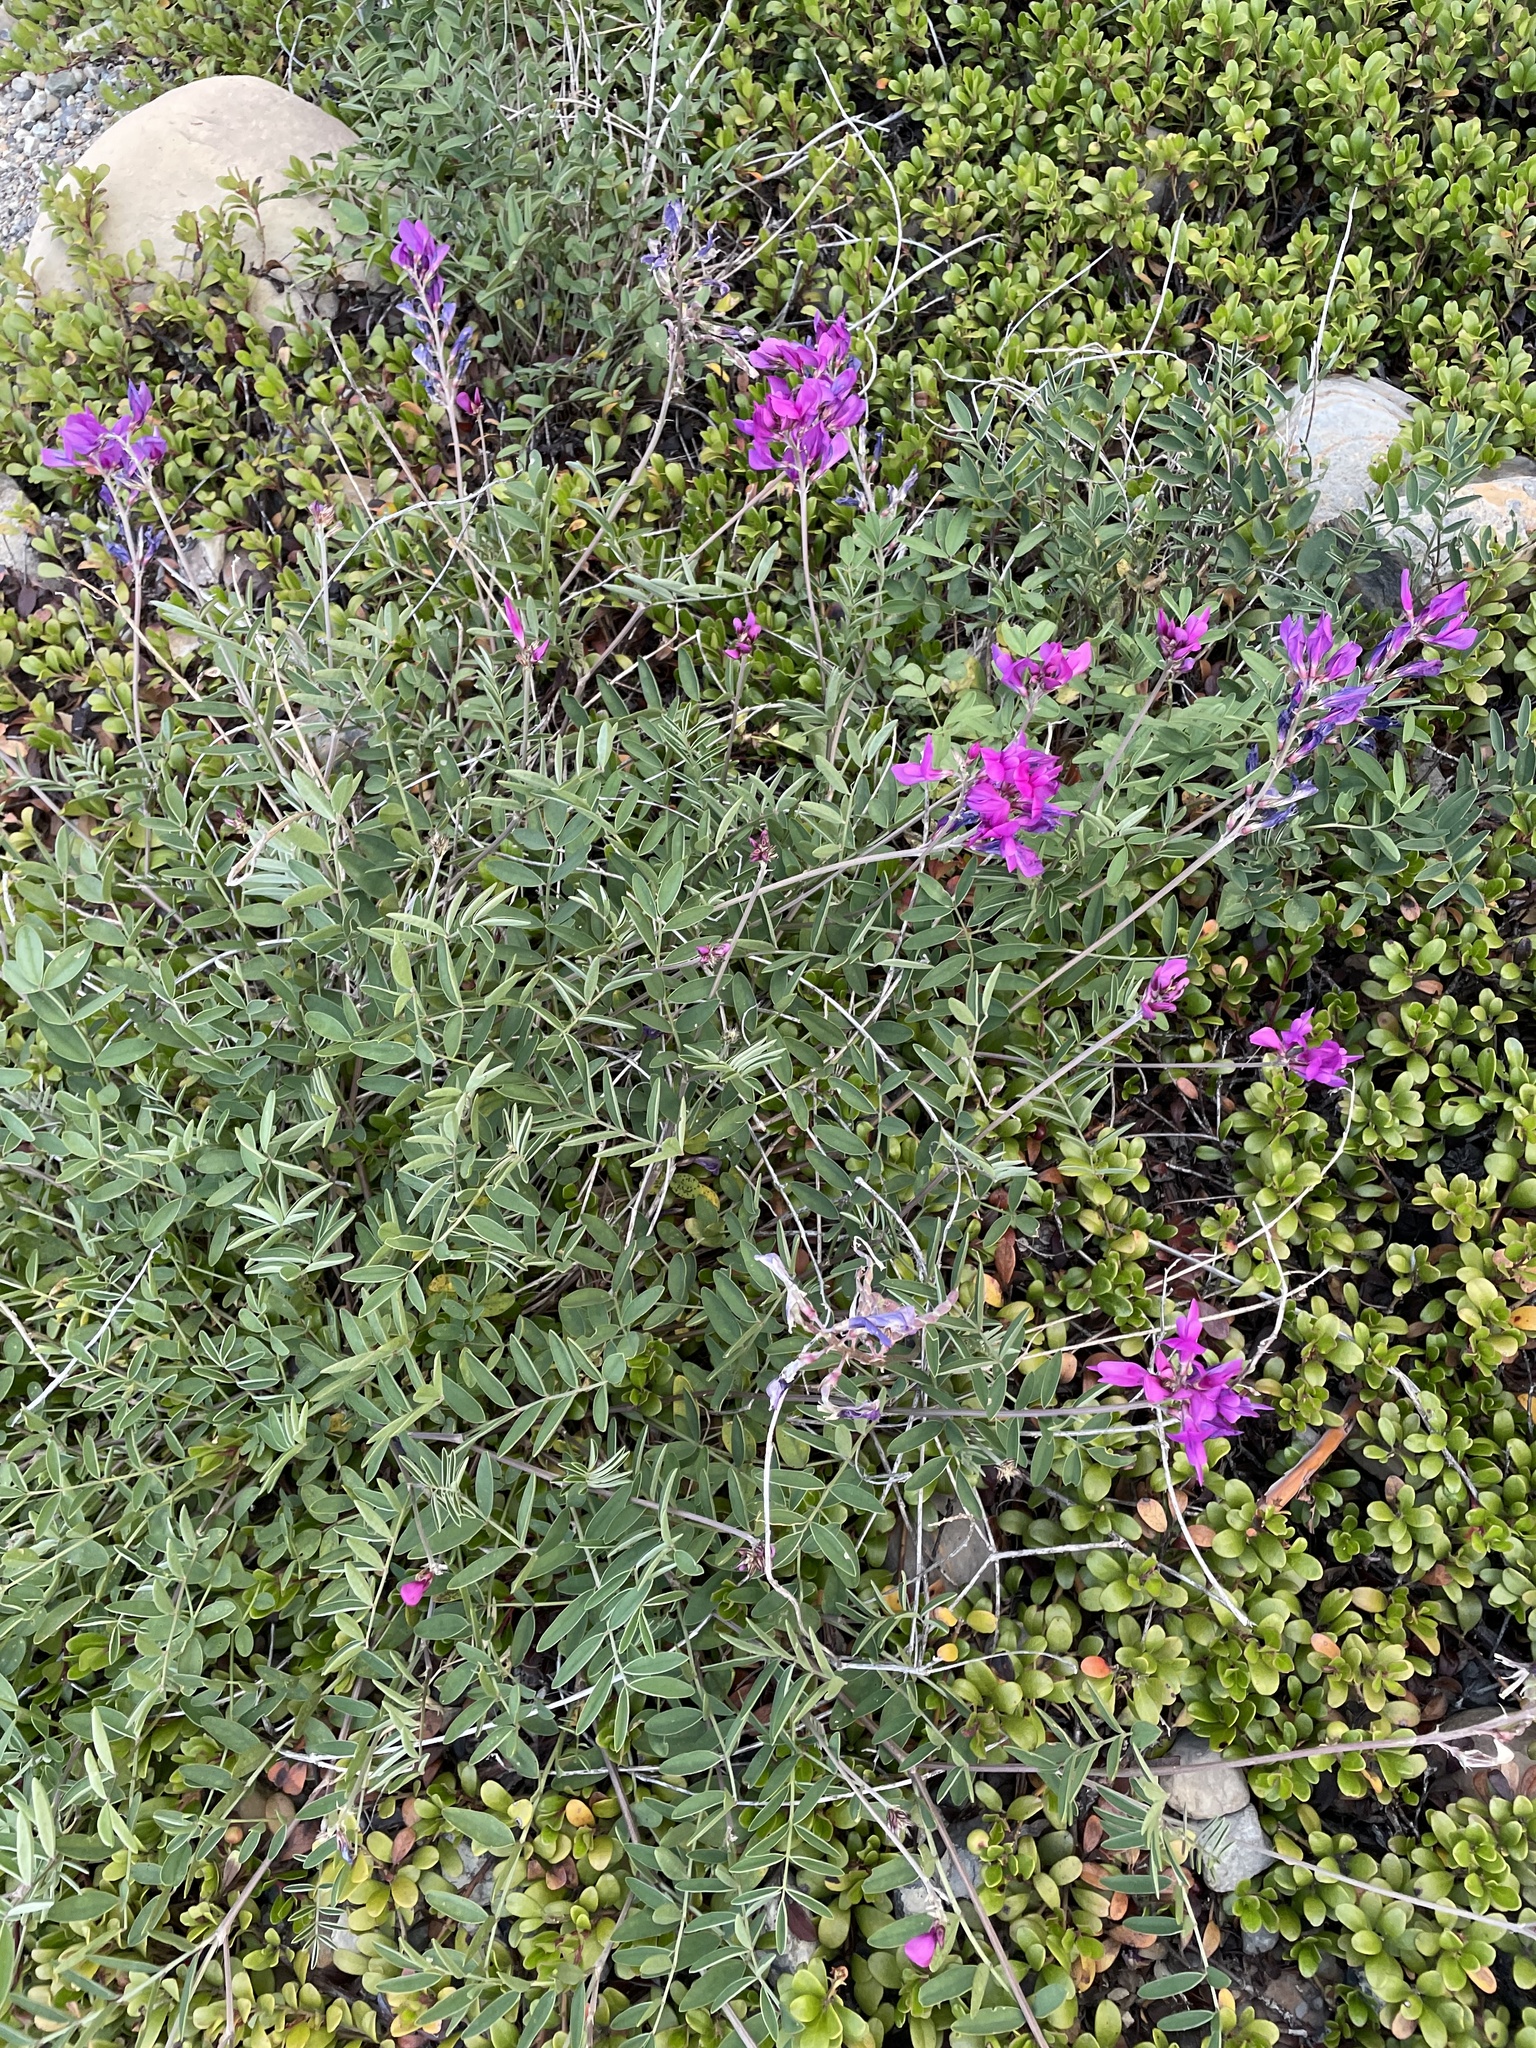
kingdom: Plantae
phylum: Tracheophyta
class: Magnoliopsida
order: Fabales
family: Fabaceae
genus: Hedysarum
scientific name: Hedysarum boreale
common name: Northern sweet-vetch
